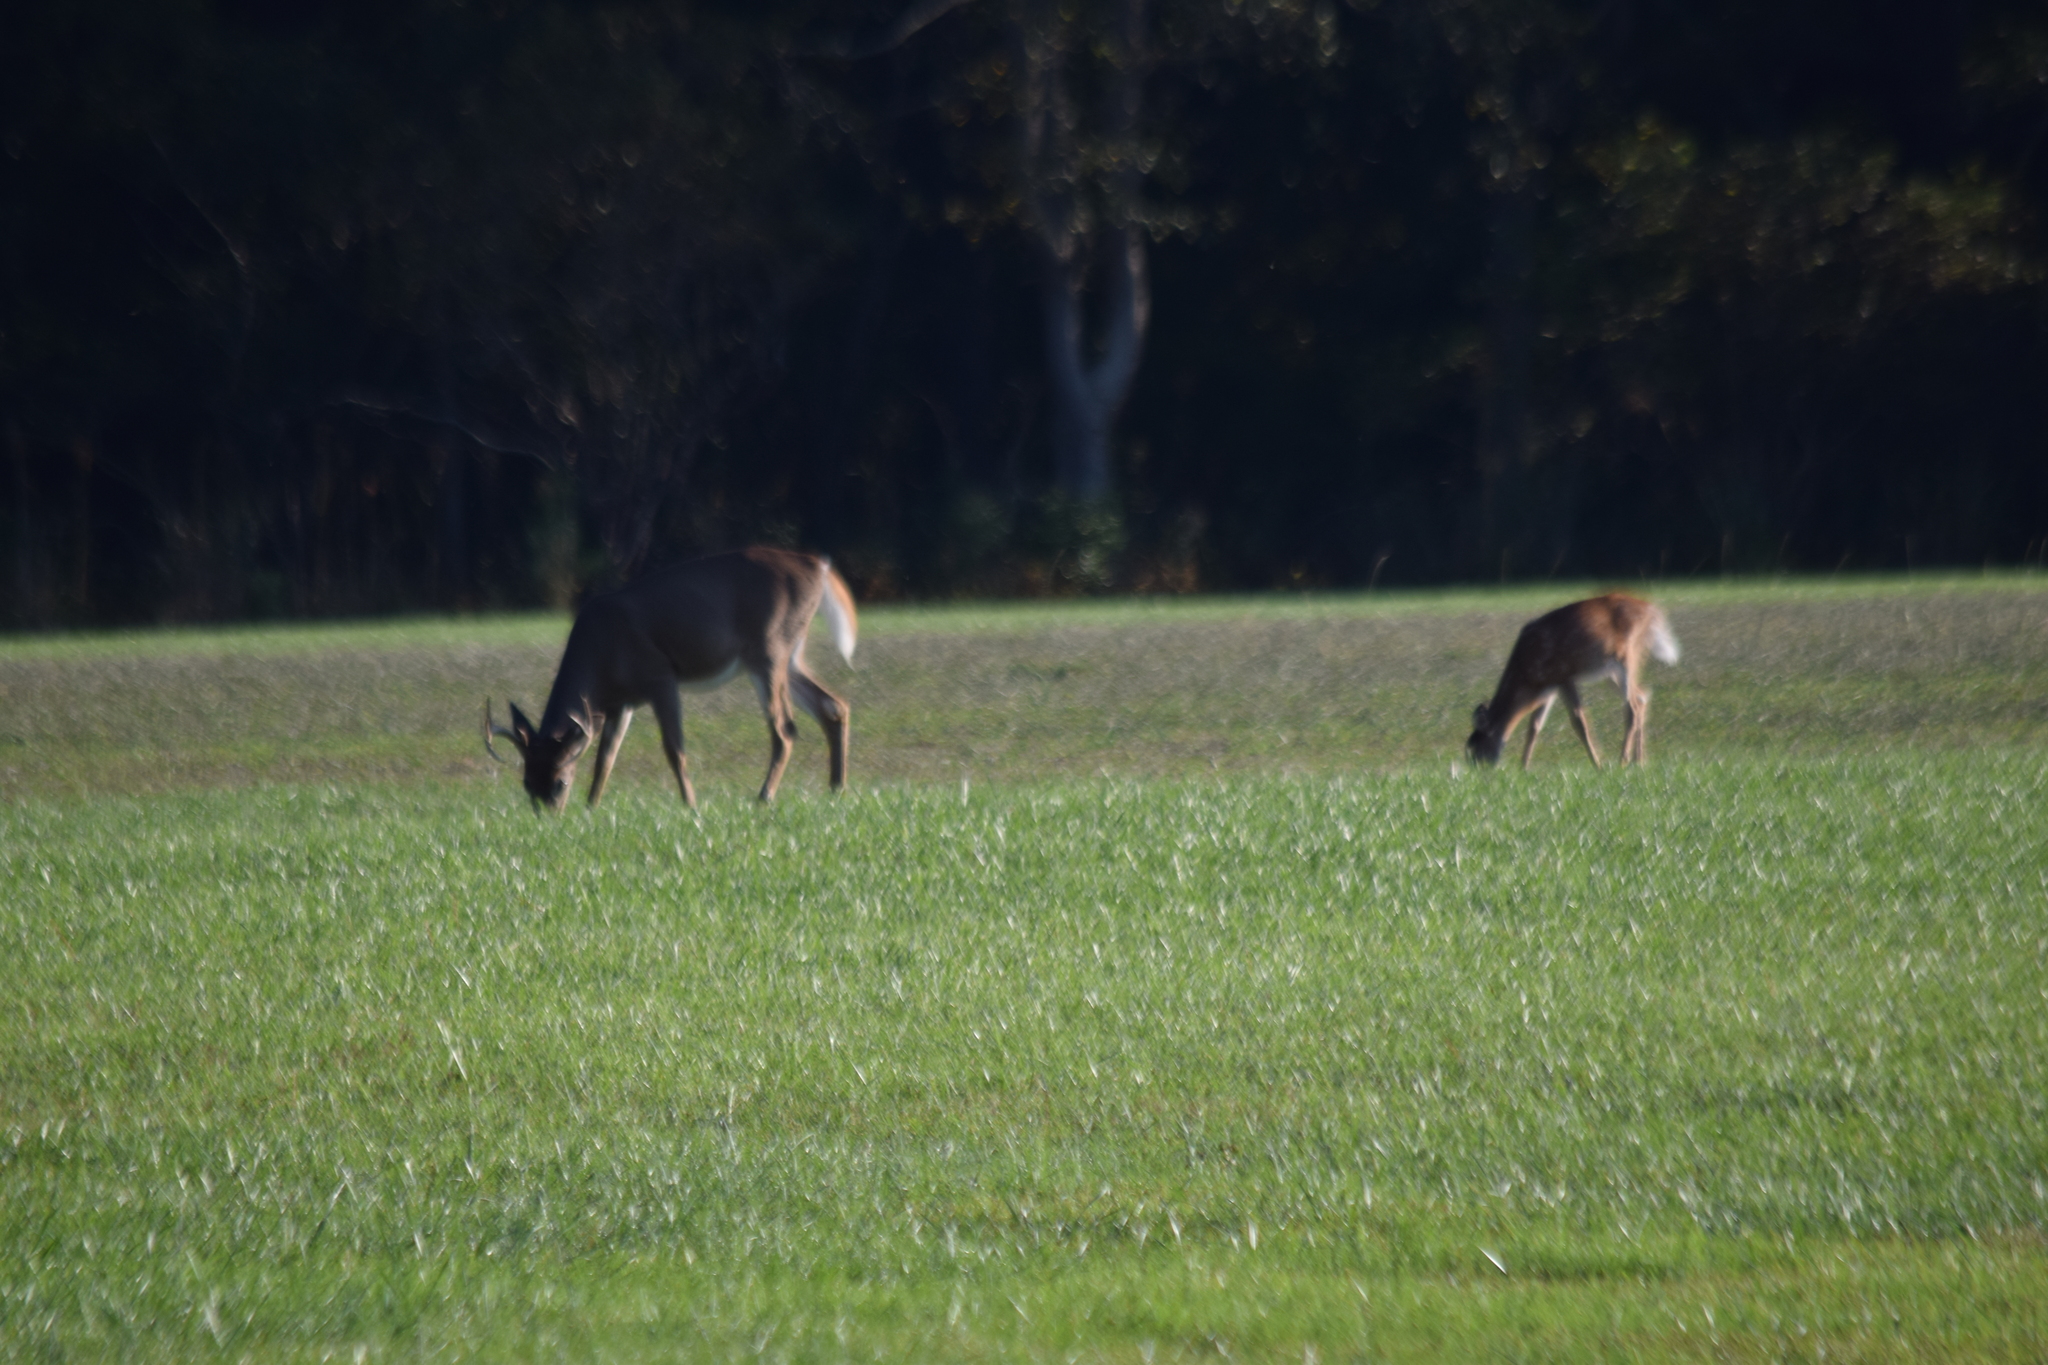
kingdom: Animalia
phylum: Chordata
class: Mammalia
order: Artiodactyla
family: Cervidae
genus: Odocoileus
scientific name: Odocoileus virginianus
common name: White-tailed deer
